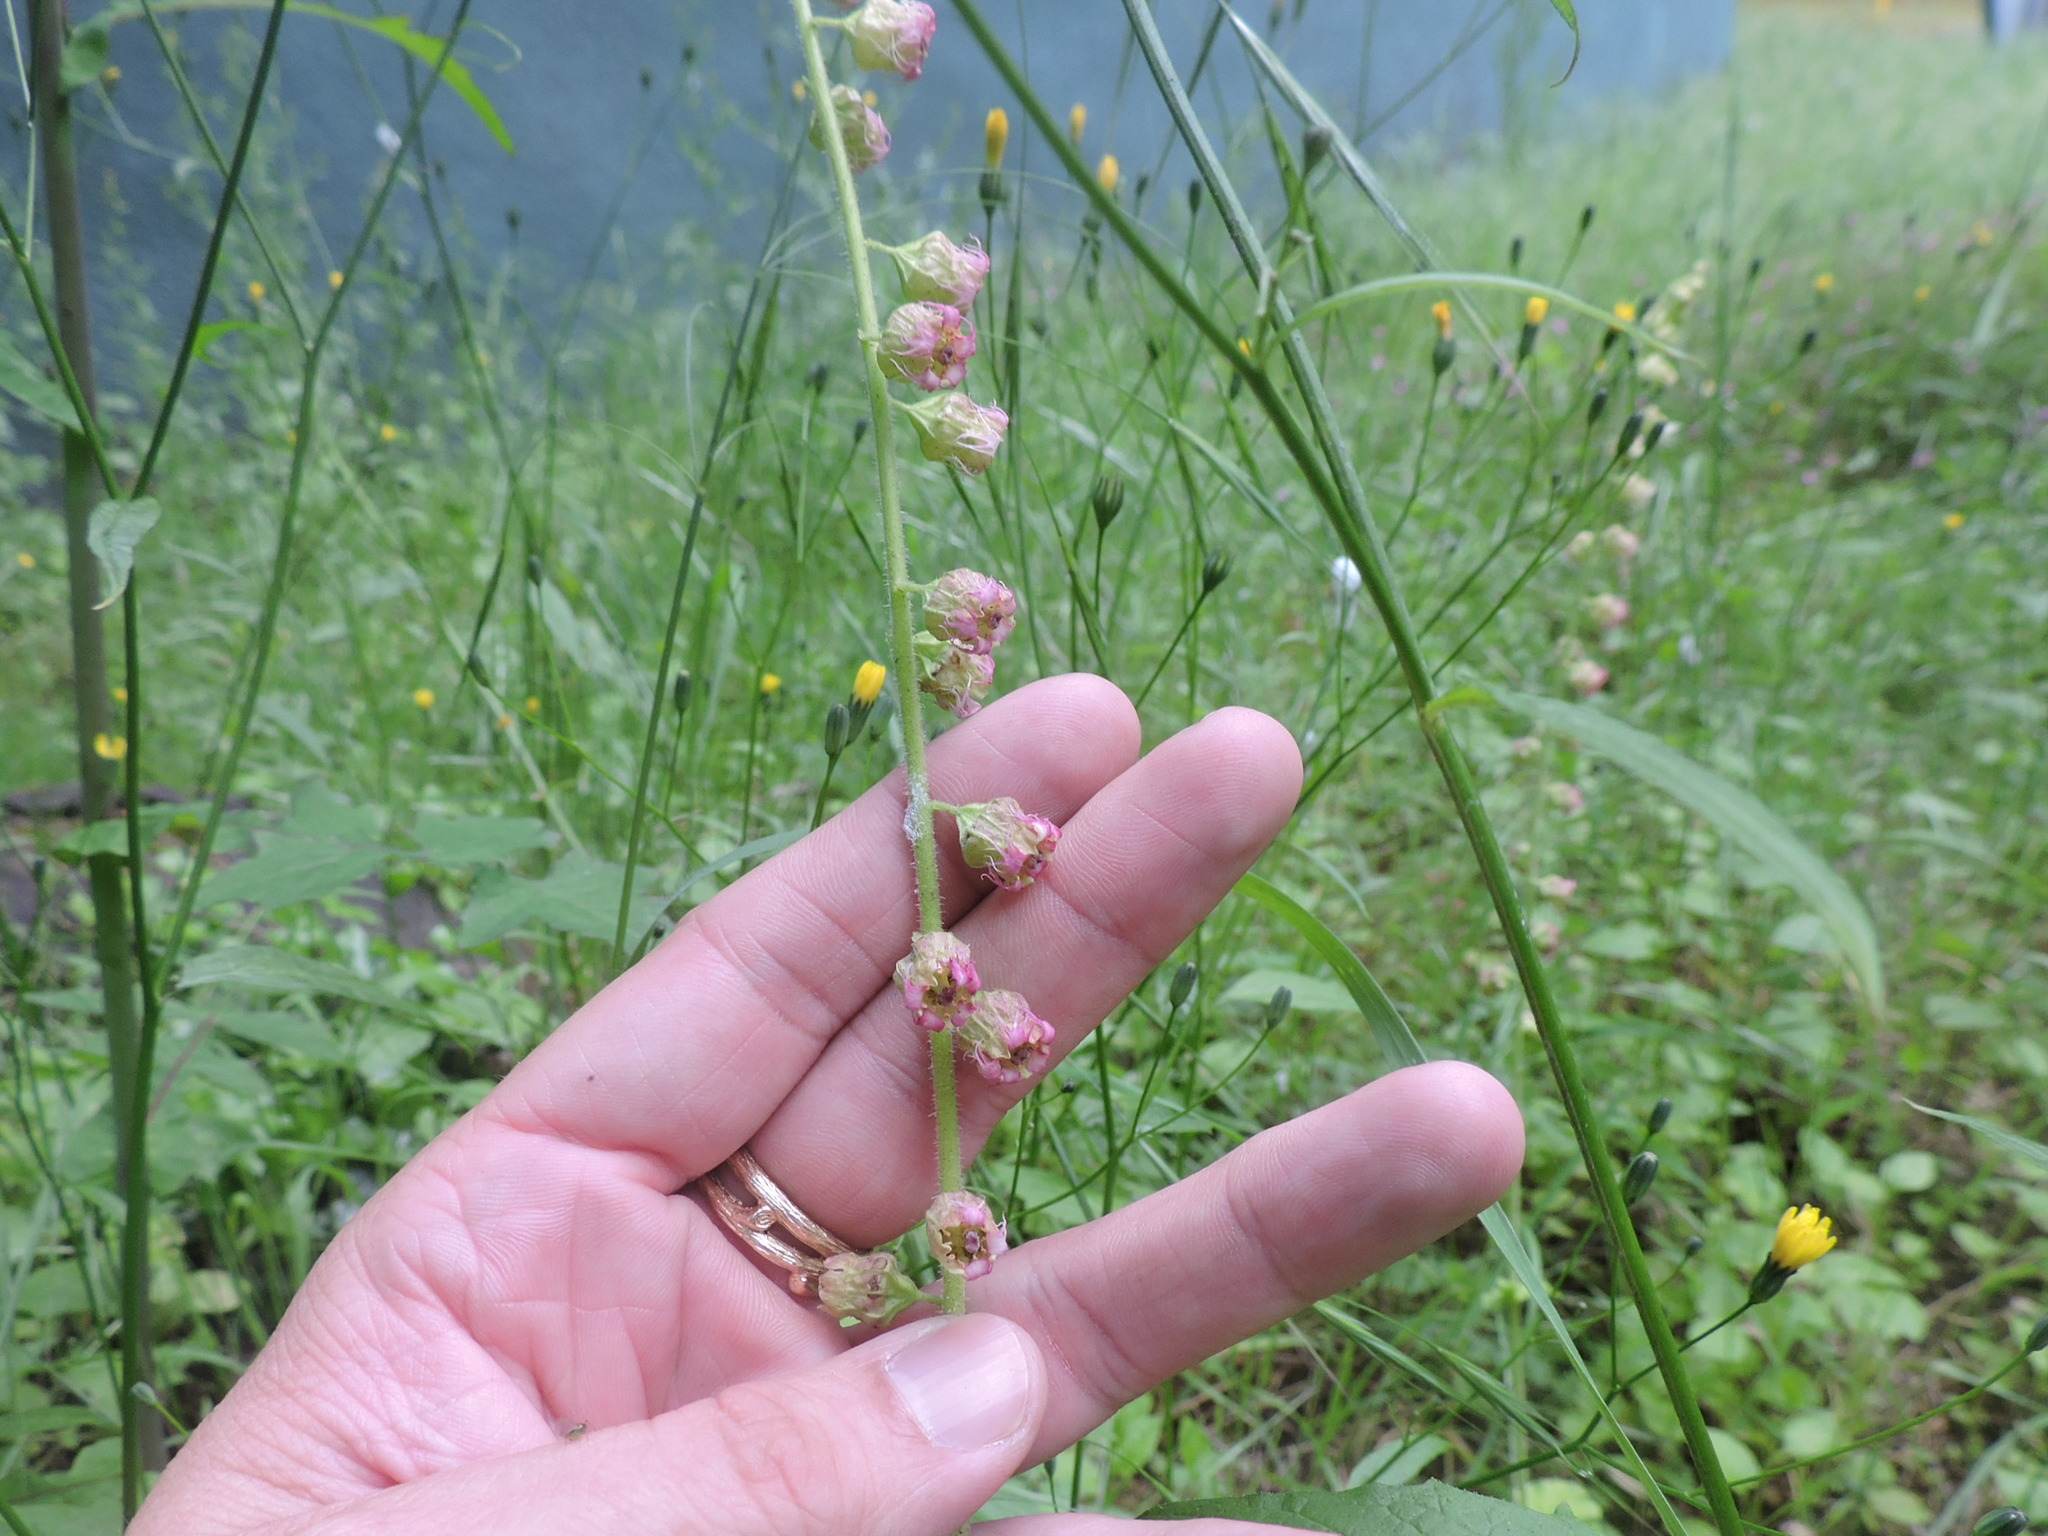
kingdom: Plantae
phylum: Tracheophyta
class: Magnoliopsida
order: Saxifragales
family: Saxifragaceae
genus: Tellima
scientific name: Tellima grandiflora
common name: Fringecups
